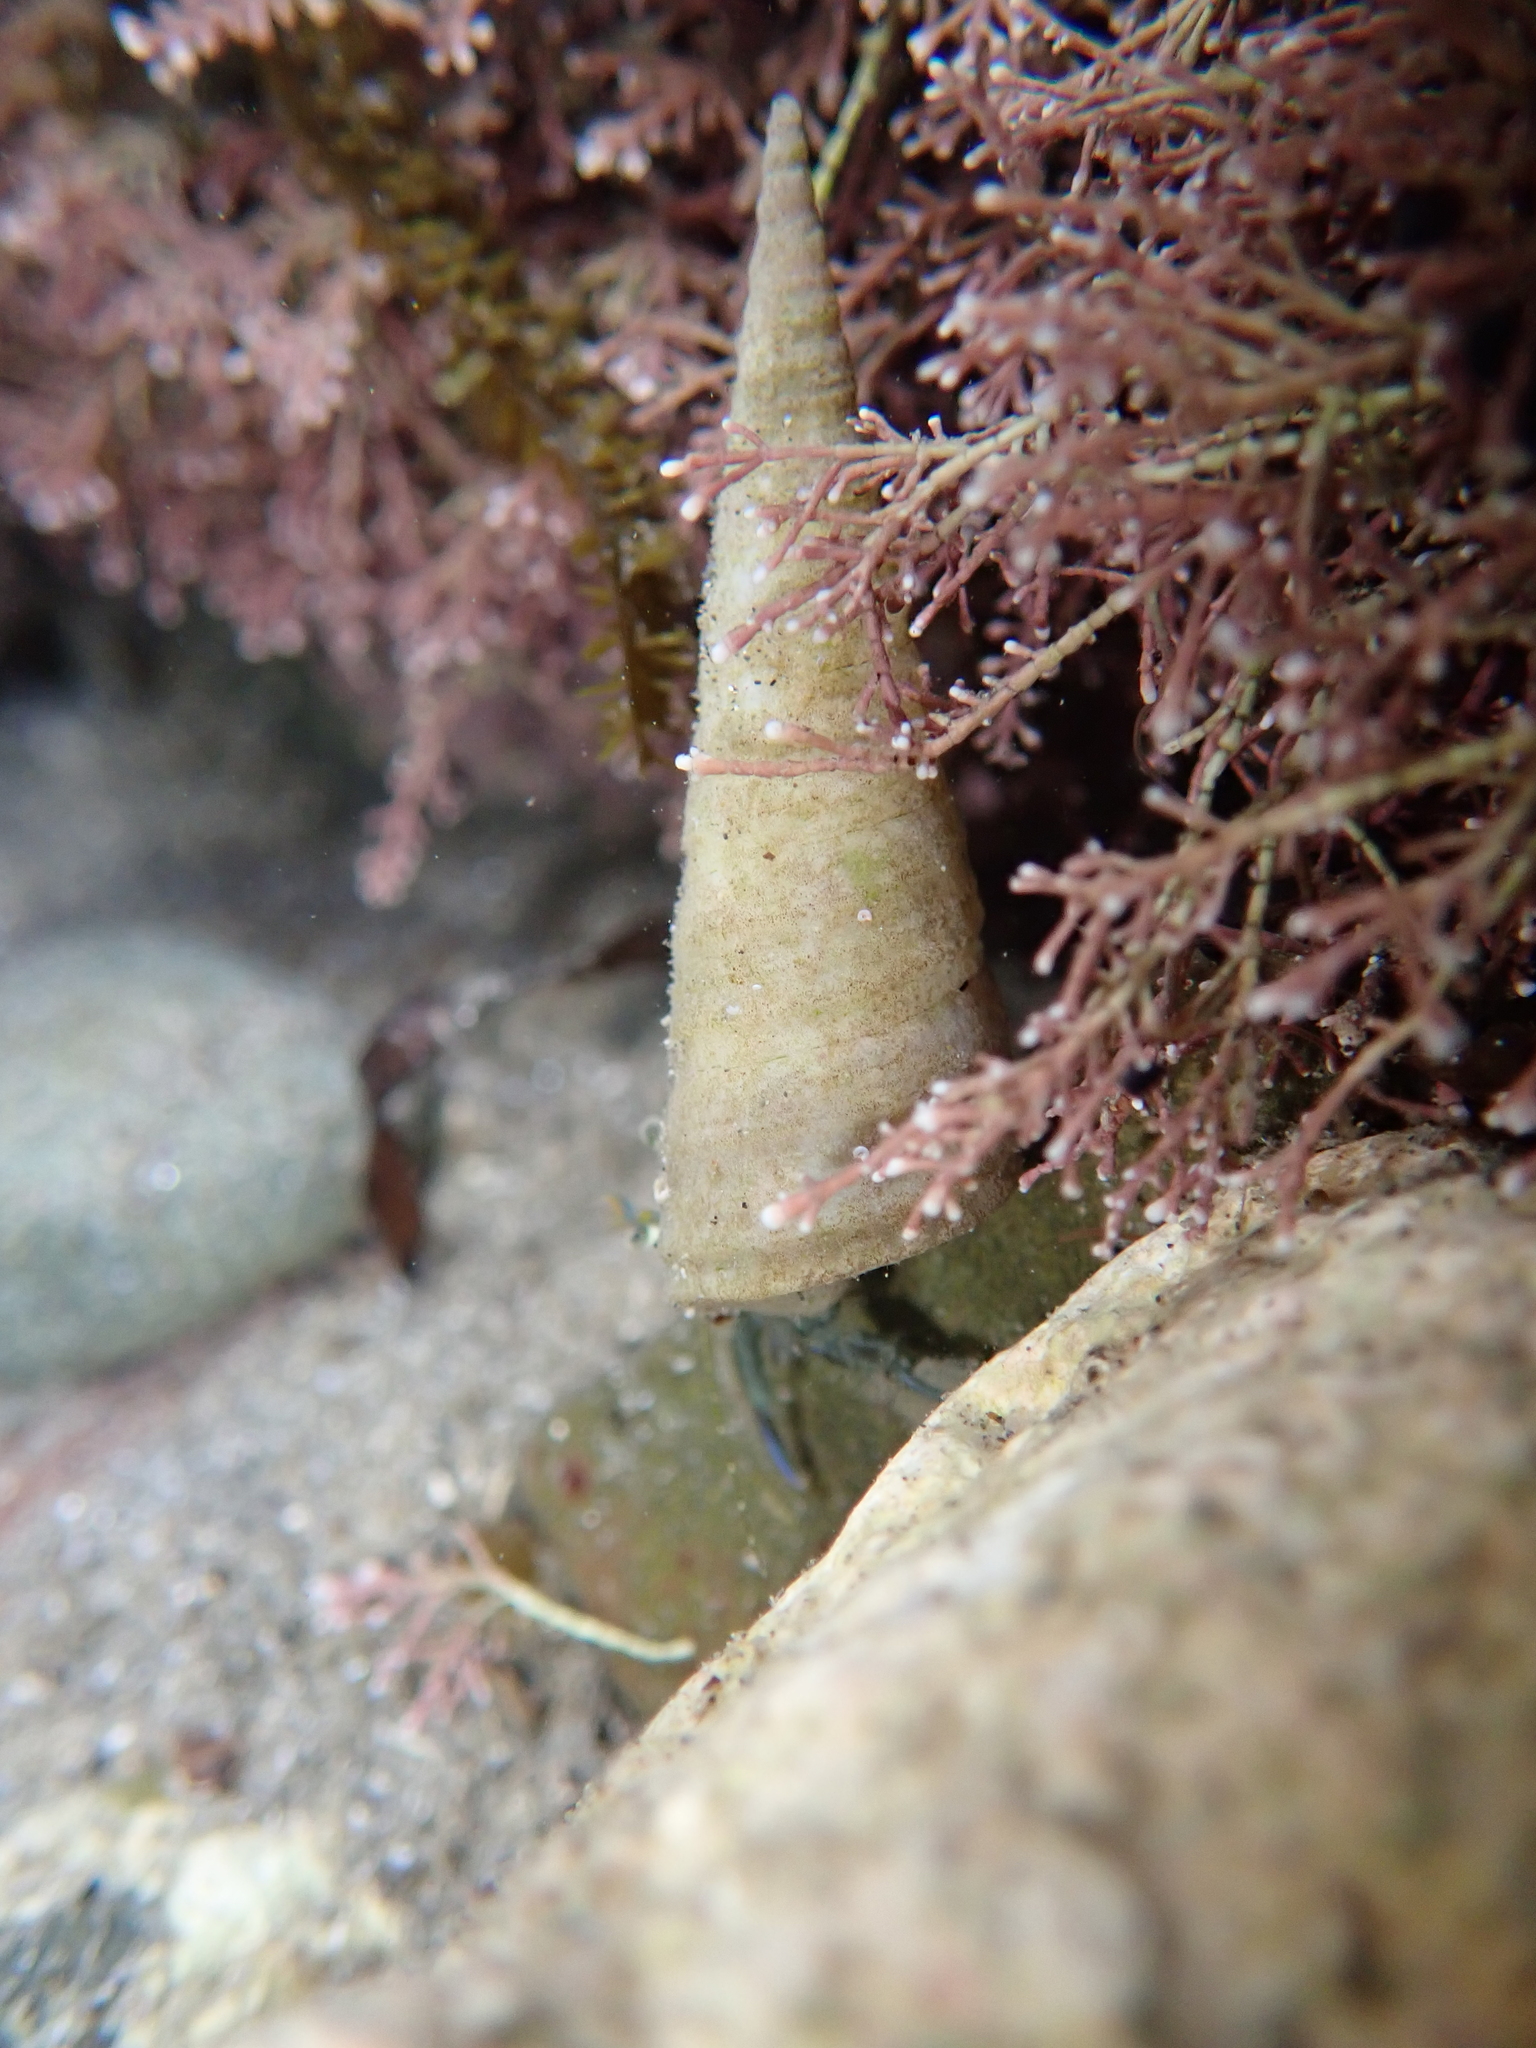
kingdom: Animalia
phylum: Mollusca
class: Gastropoda
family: Turritellidae
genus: Maoricolpus
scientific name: Maoricolpus roseus
